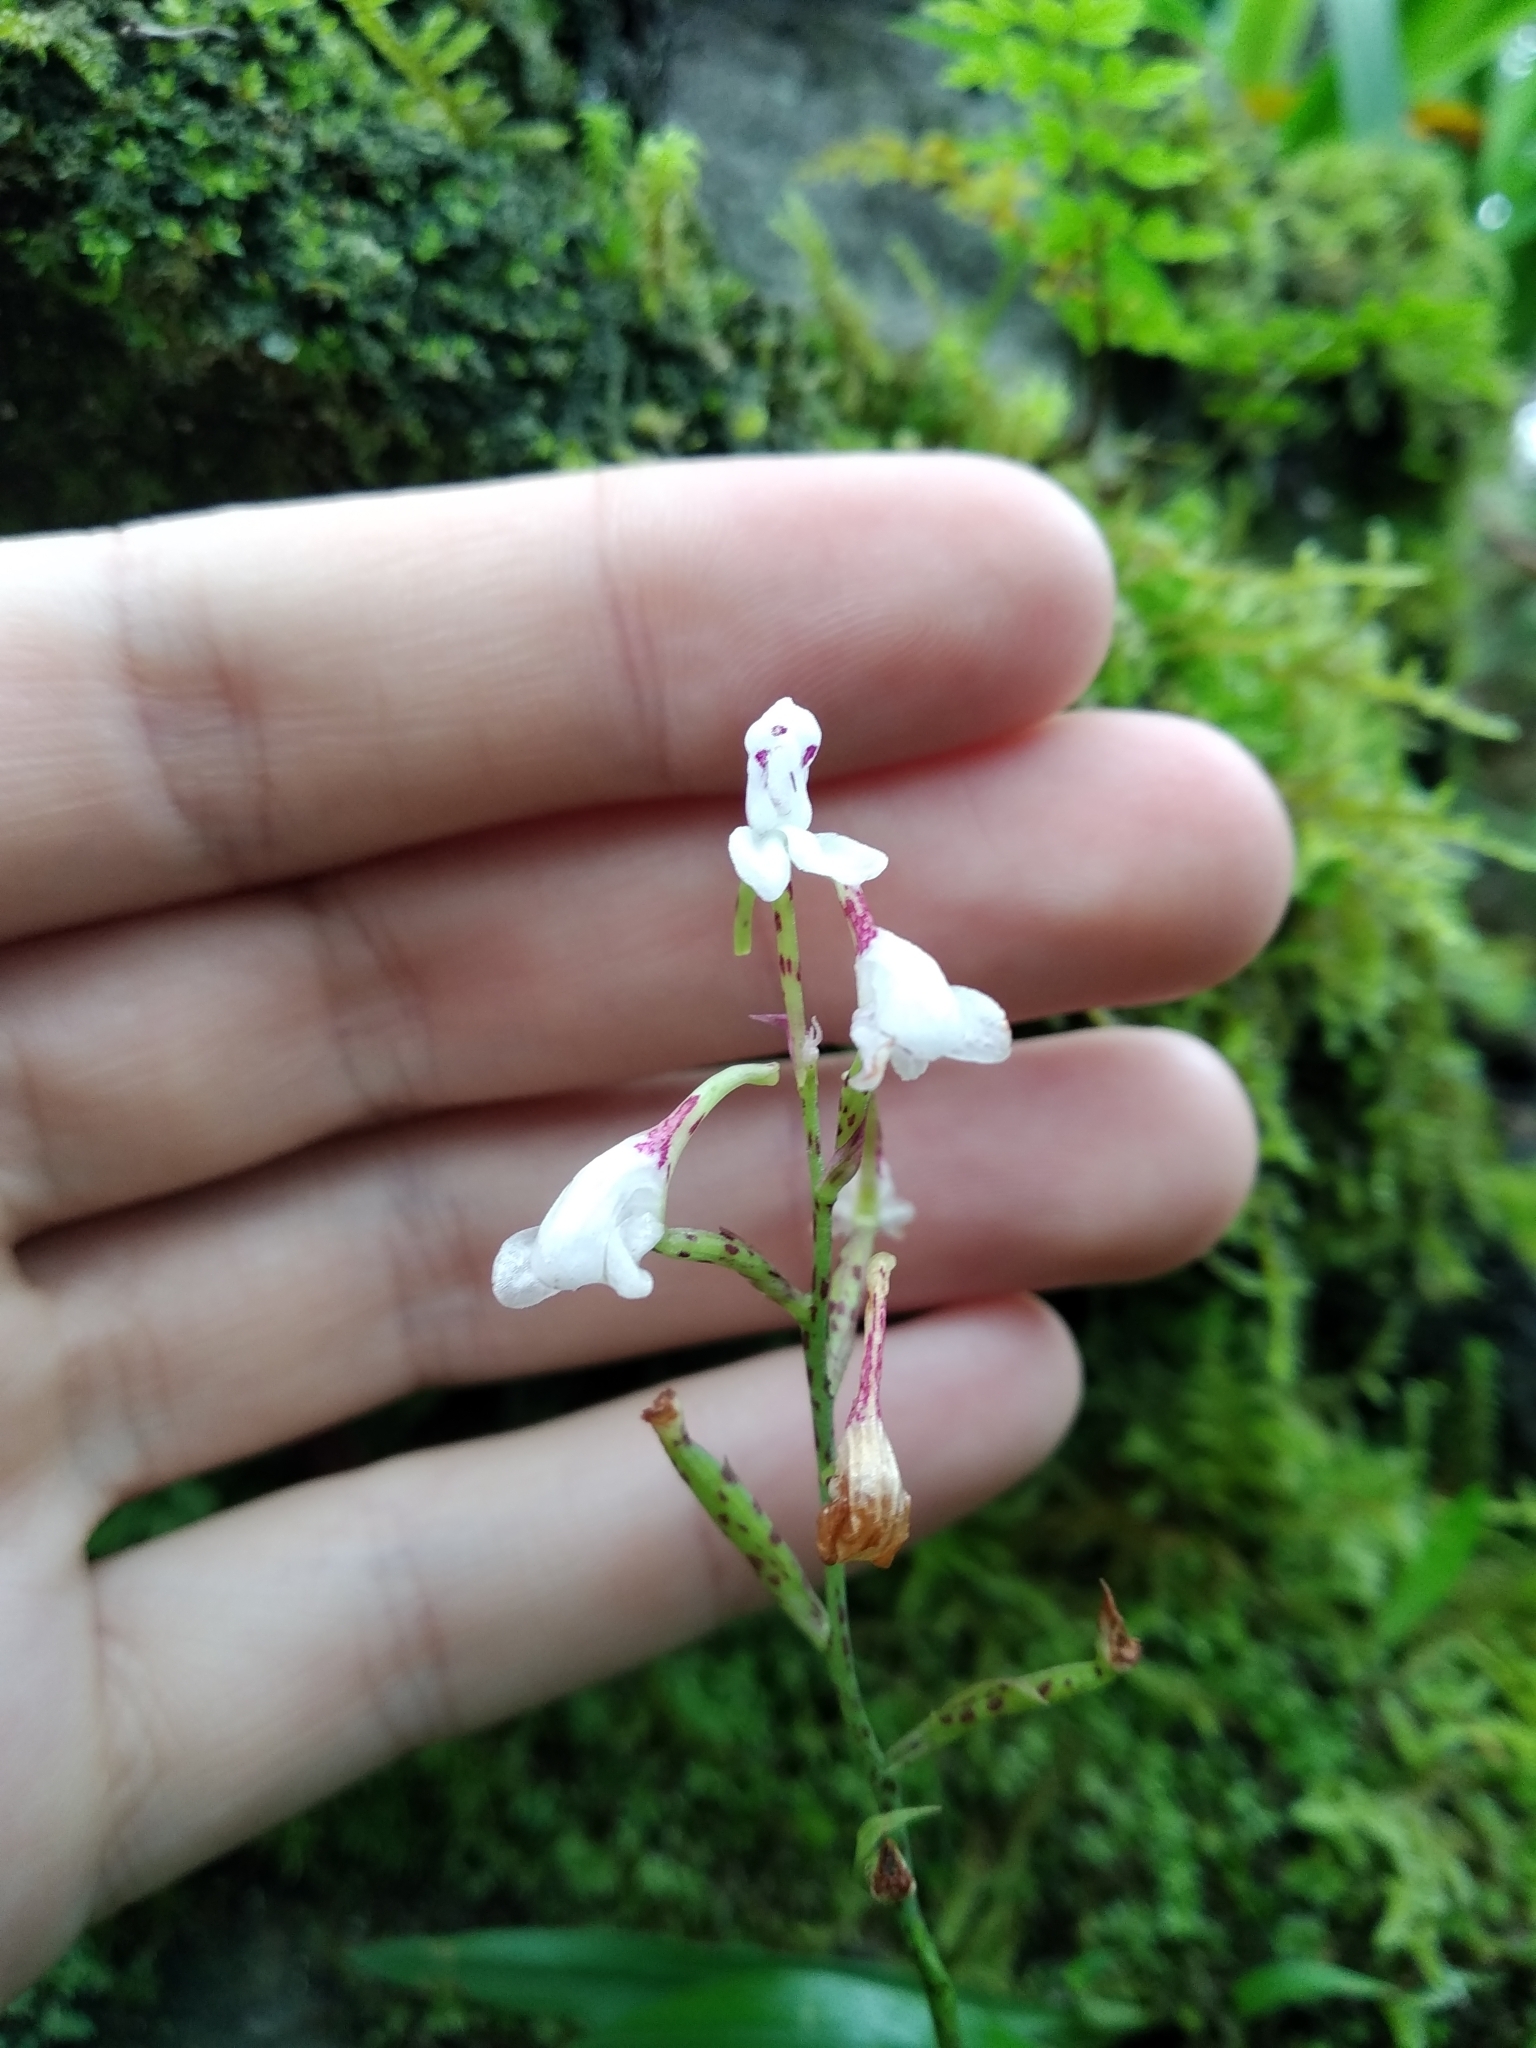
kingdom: Plantae
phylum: Tracheophyta
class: Liliopsida
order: Asparagales
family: Orchidaceae
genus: Disa
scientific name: Disa saxicola
